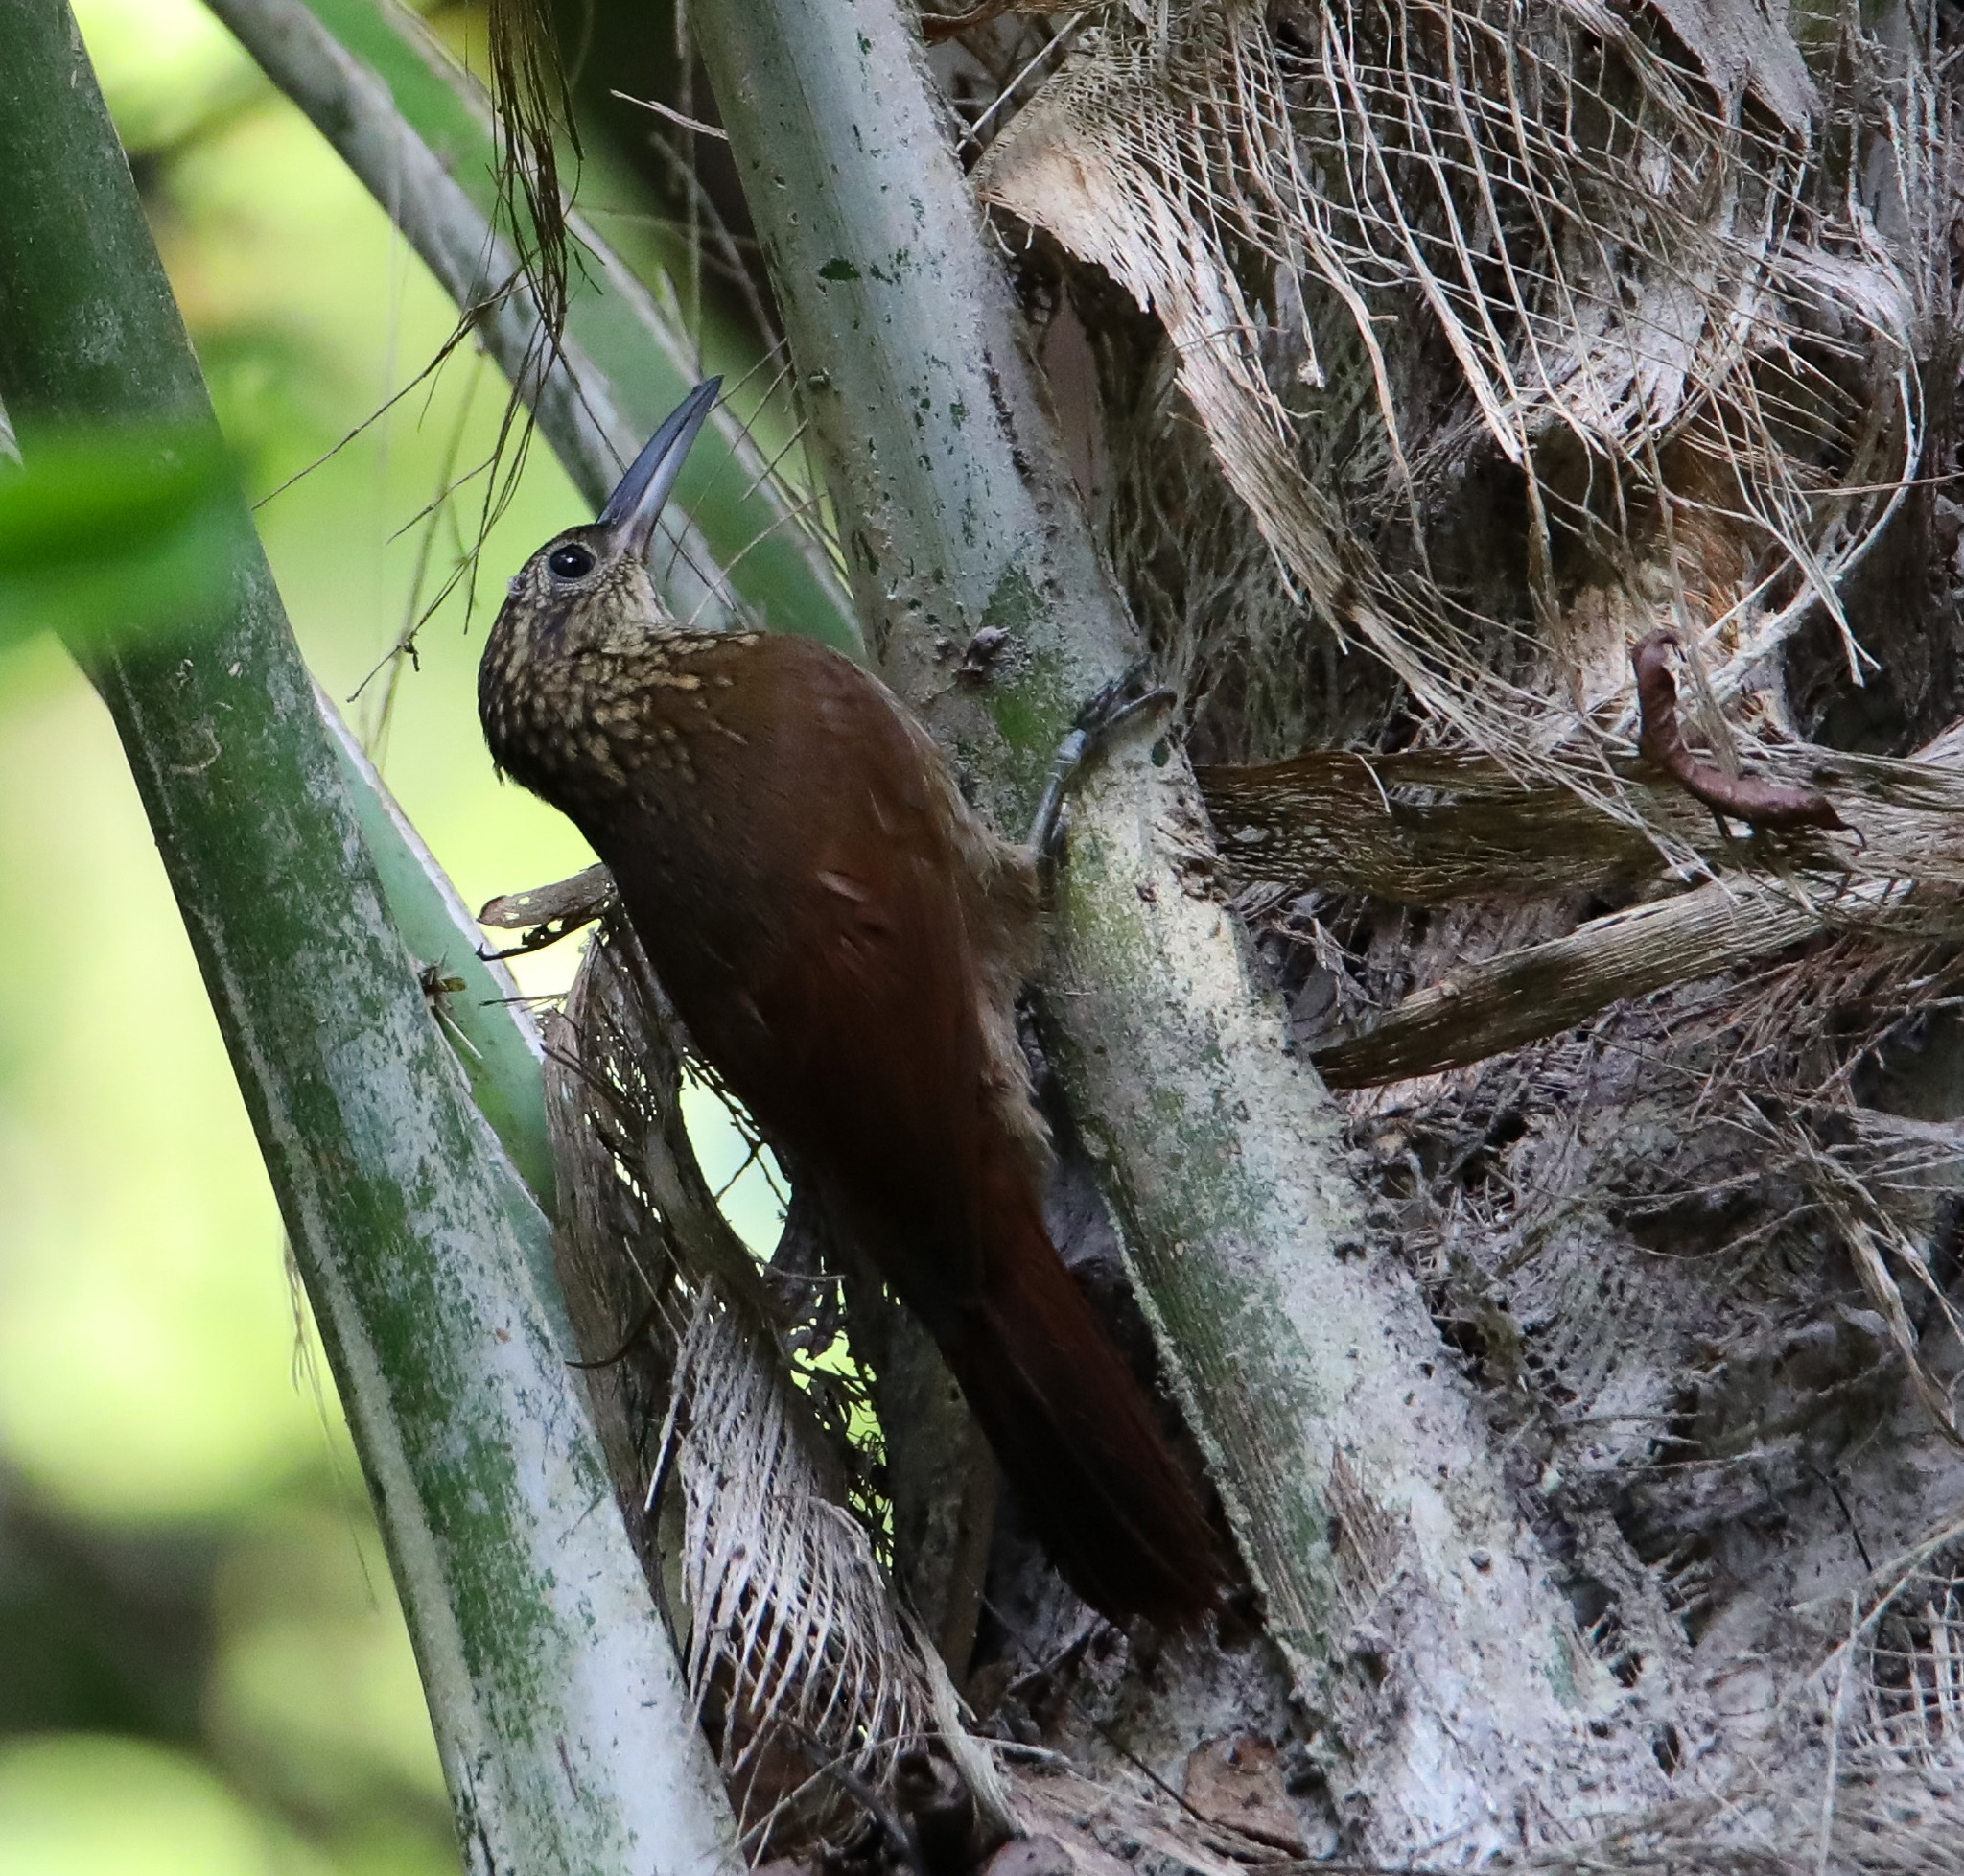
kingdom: Animalia
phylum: Chordata
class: Aves
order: Passeriformes
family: Furnariidae
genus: Xiphorhynchus
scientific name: Xiphorhynchus susurrans
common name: Cocoa woodcreeper
